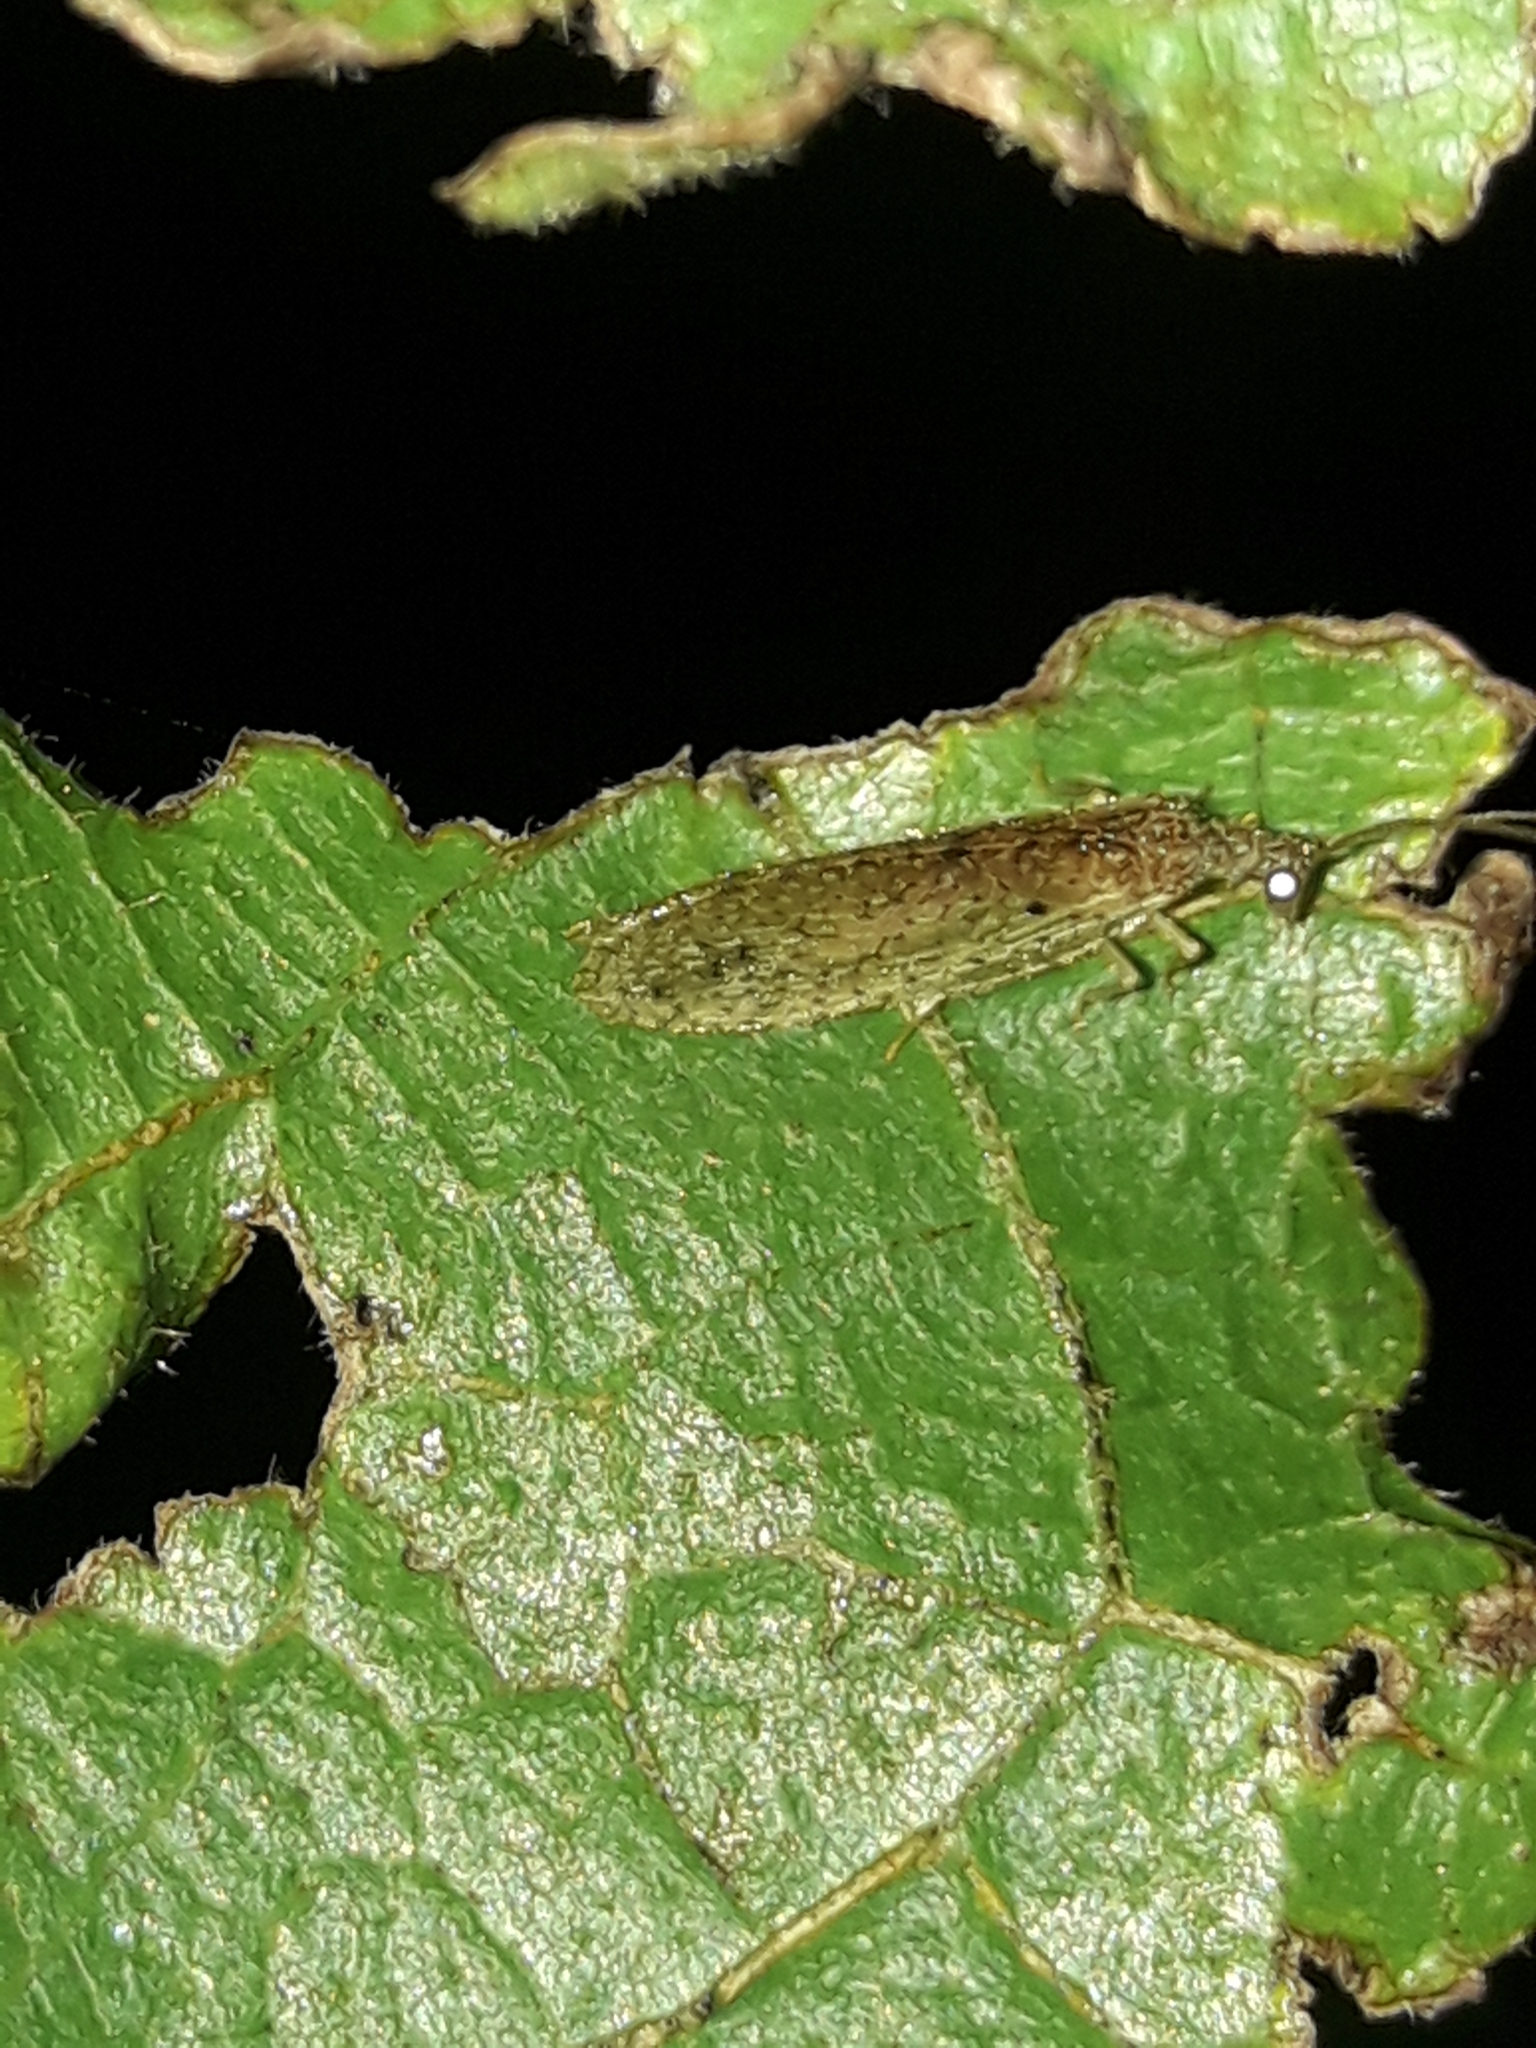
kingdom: Animalia
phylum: Arthropoda
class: Insecta
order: Neuroptera
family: Hemerobiidae
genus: Micromus
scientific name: Micromus tasmaniae
